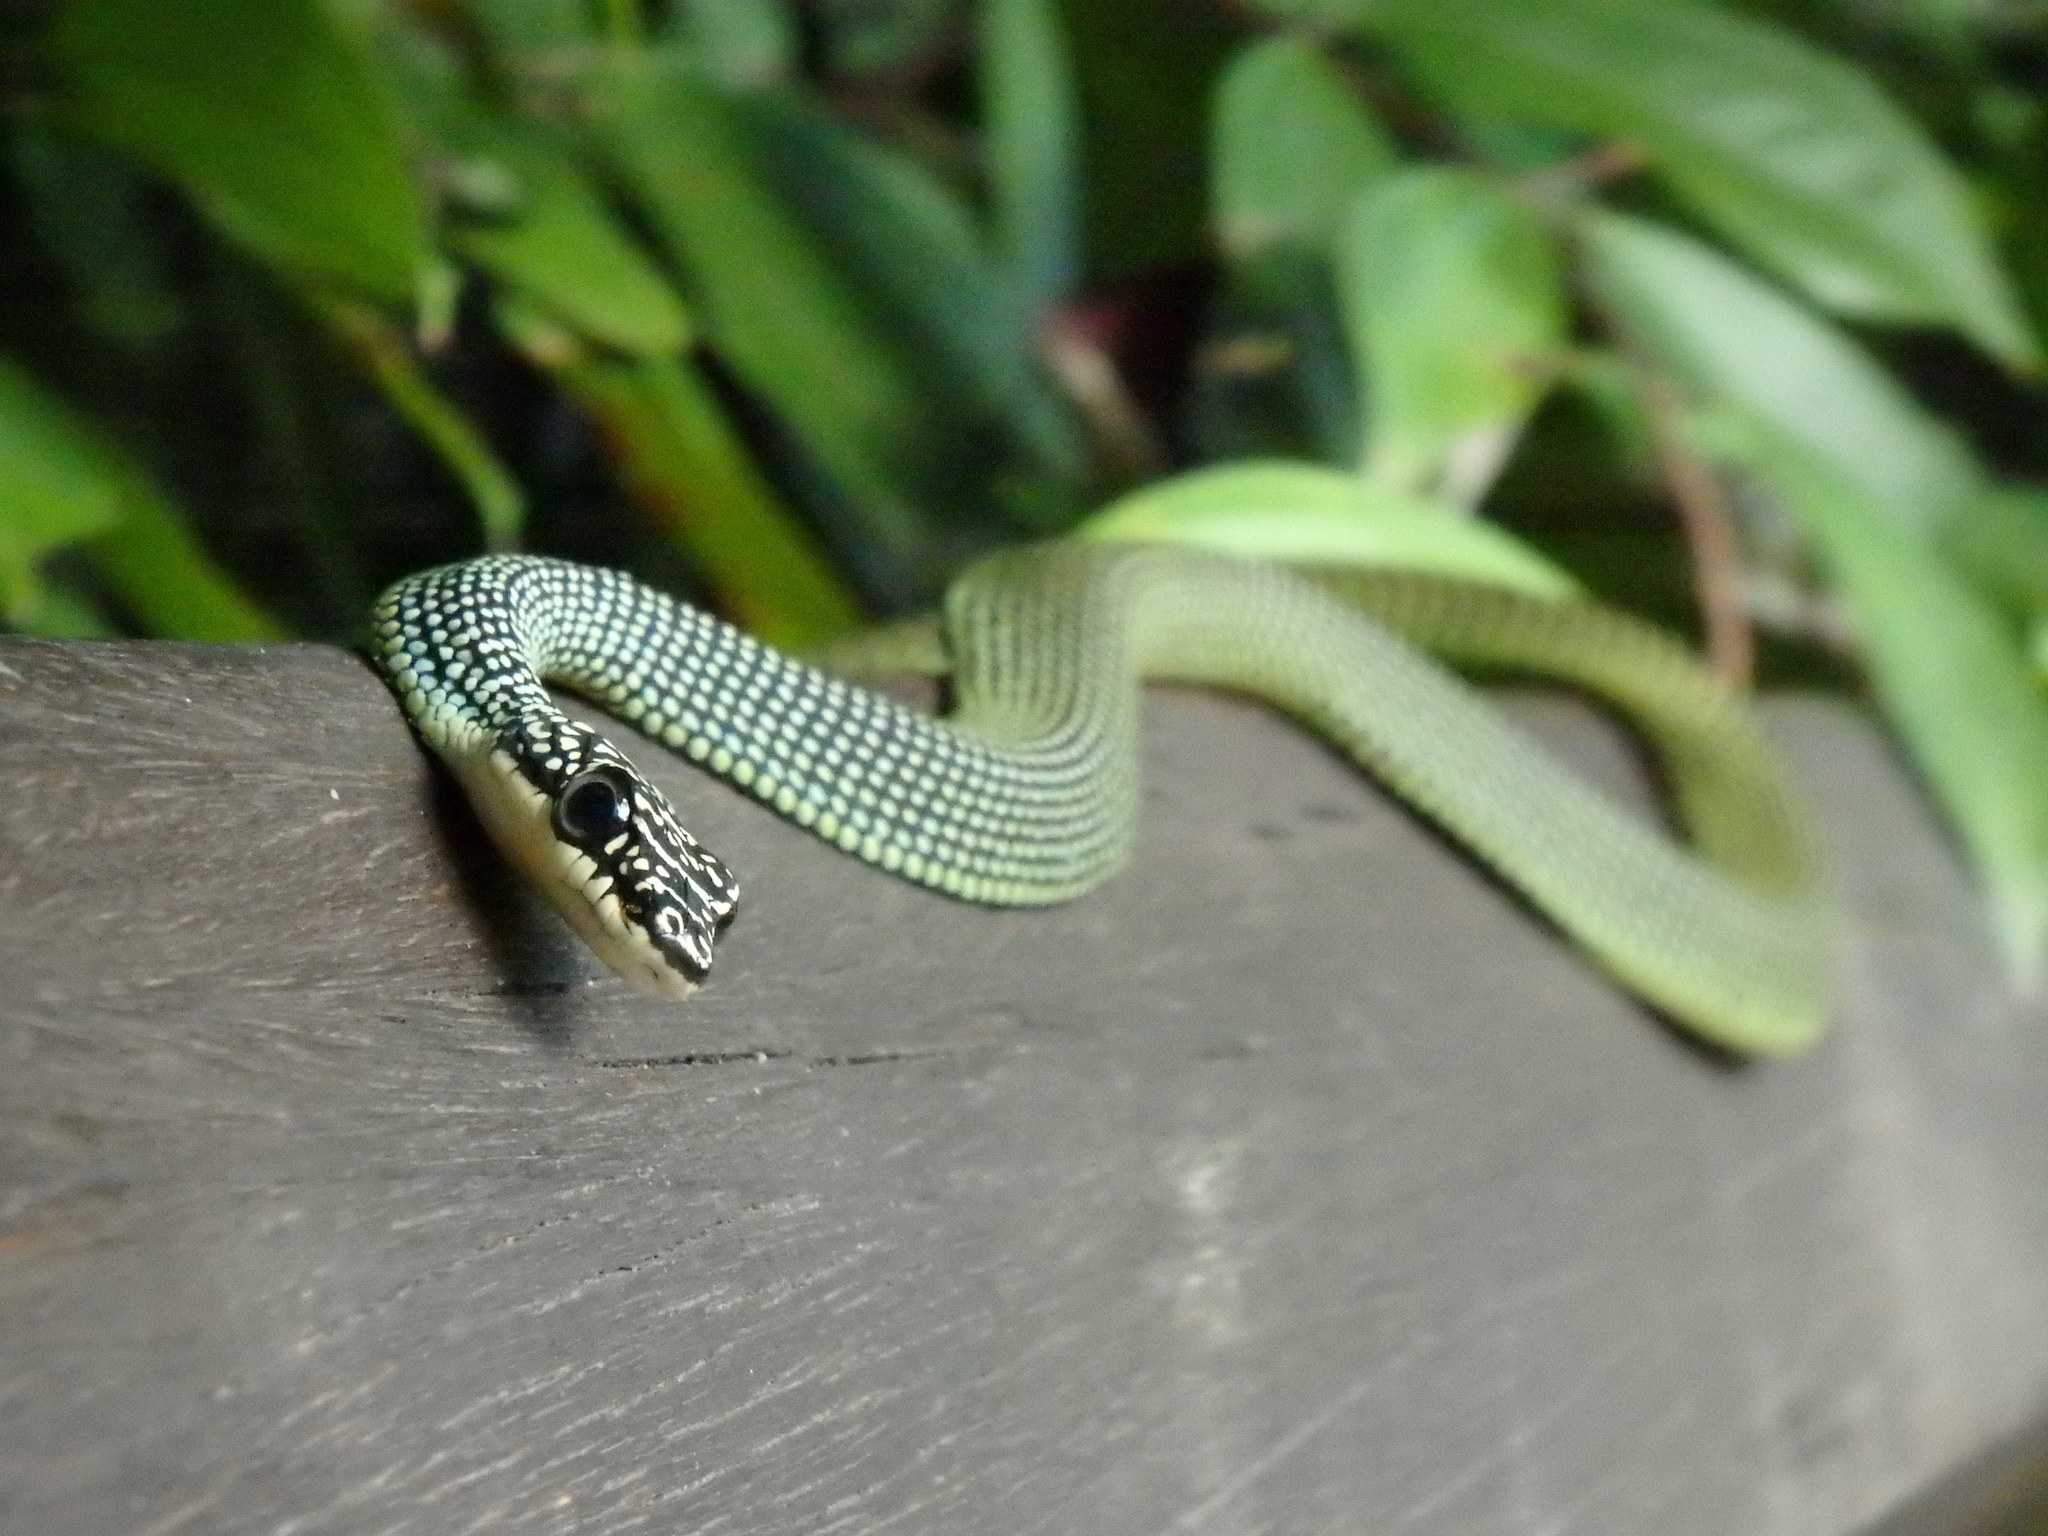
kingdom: Animalia
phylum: Chordata
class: Squamata
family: Colubridae
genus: Chrysopelea
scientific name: Chrysopelea paradisi
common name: Paradise tree snake
